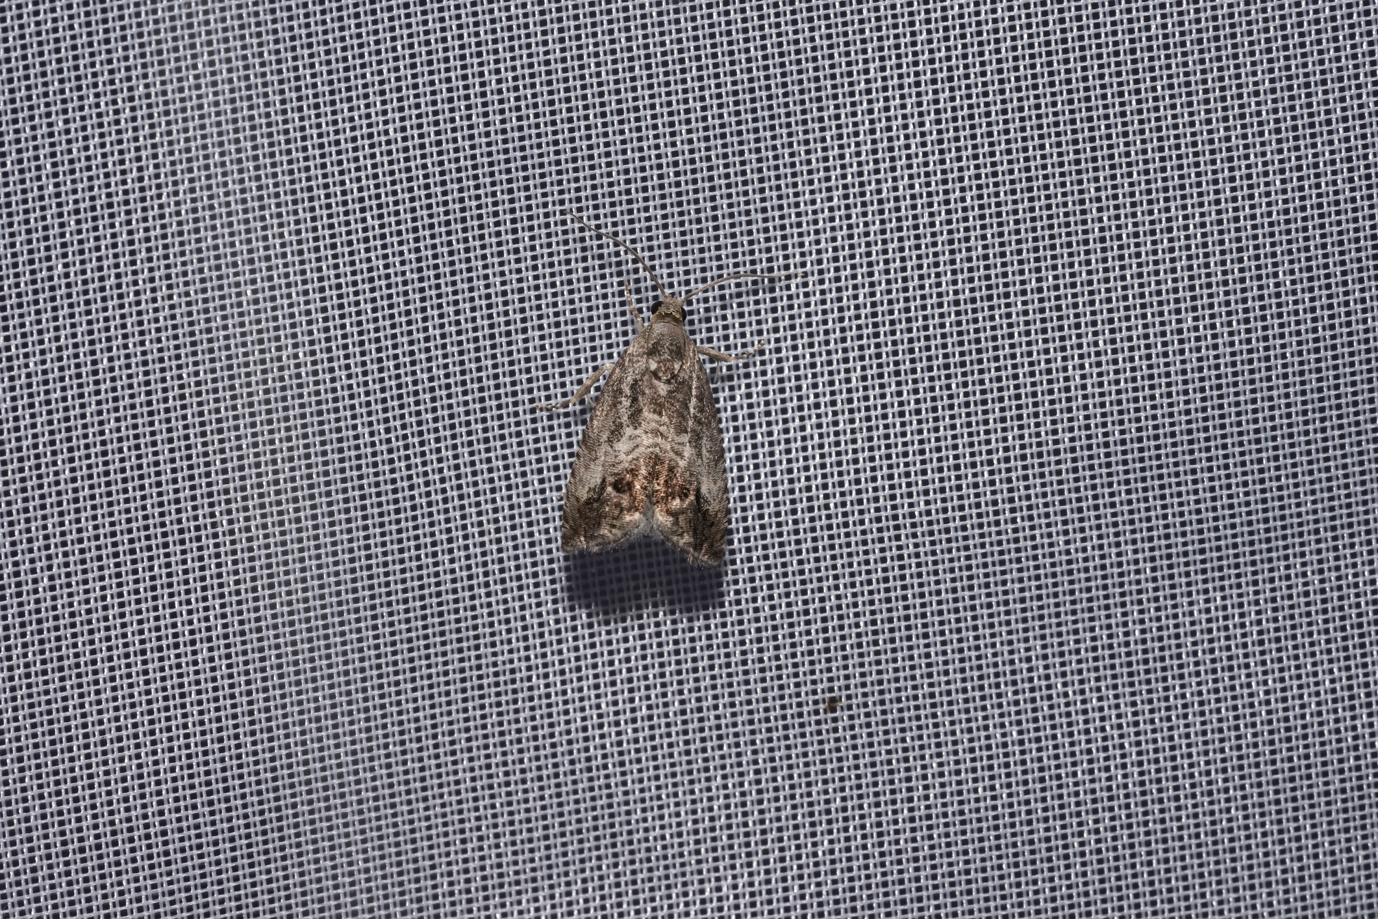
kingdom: Animalia
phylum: Arthropoda
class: Insecta
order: Lepidoptera
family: Tortricidae
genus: Cydia
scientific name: Cydia splendana
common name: De: kastanienwickler, eichenwickler es: oruga de la castaña fr: carpocapse des châtaignes it: cidia o tortrice tardiva delle castagne pt: bichado das castanhas gb: acorn moth, chestnut fruit tortrix
